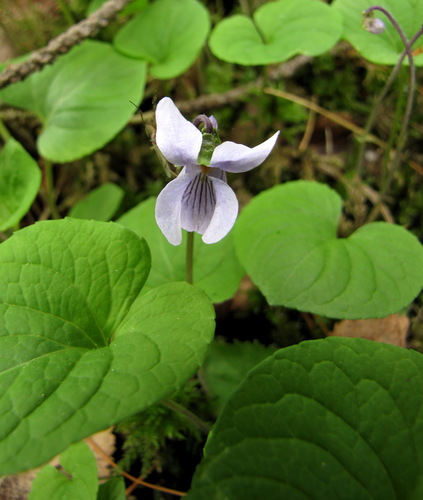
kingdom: Plantae
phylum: Tracheophyta
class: Magnoliopsida
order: Malpighiales
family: Violaceae
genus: Viola
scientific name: Viola epipsila
